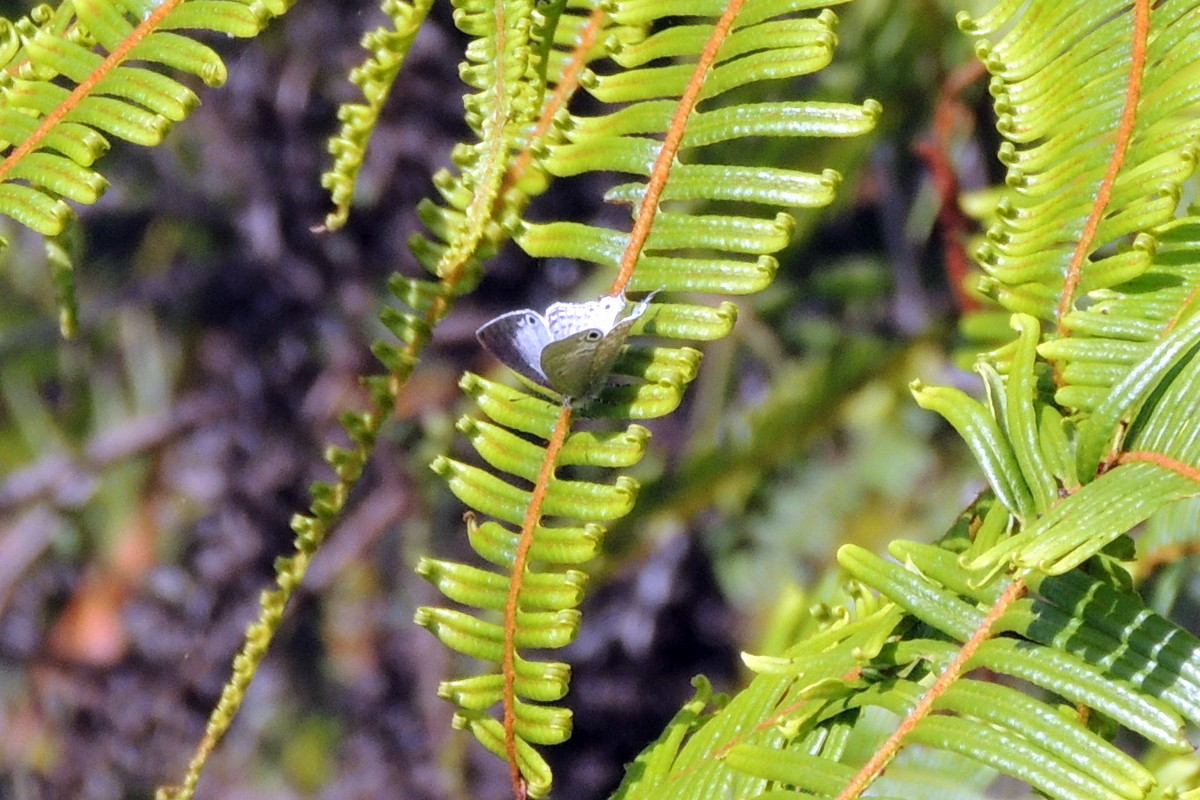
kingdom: Animalia
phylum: Arthropoda
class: Insecta
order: Lepidoptera
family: Lycaenidae
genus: Leptomyrina
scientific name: Leptomyrina phidias
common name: Madagascar black-eye
